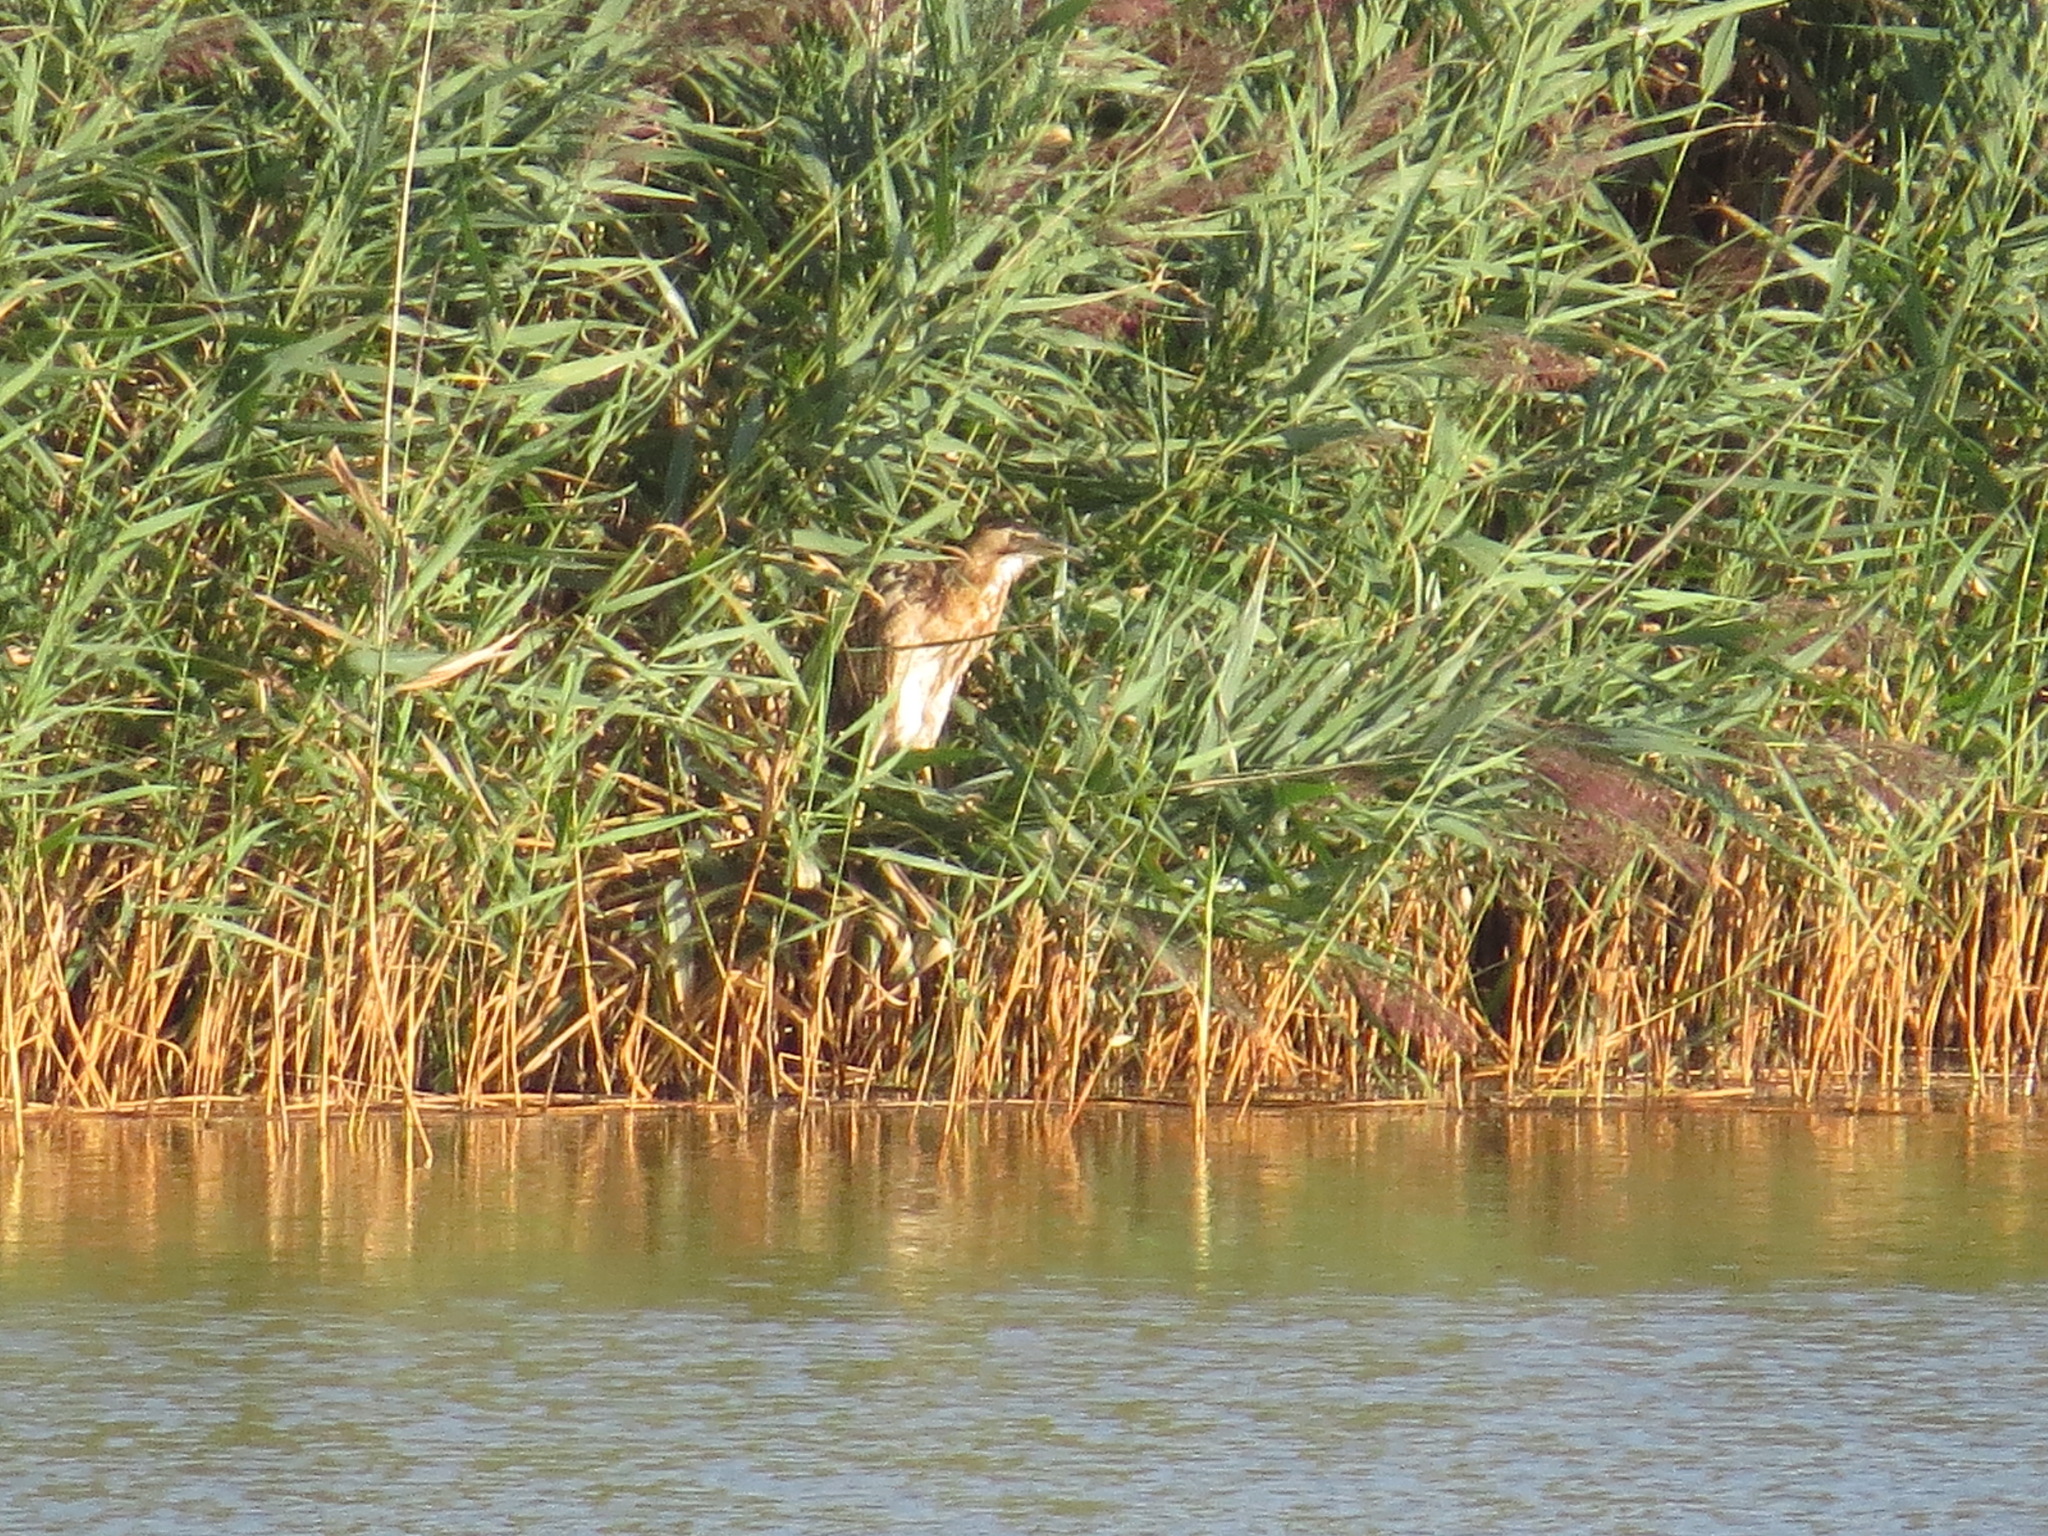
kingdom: Animalia
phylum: Chordata
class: Aves
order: Pelecaniformes
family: Ardeidae
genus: Botaurus
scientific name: Botaurus stellaris
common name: Eurasian bittern
